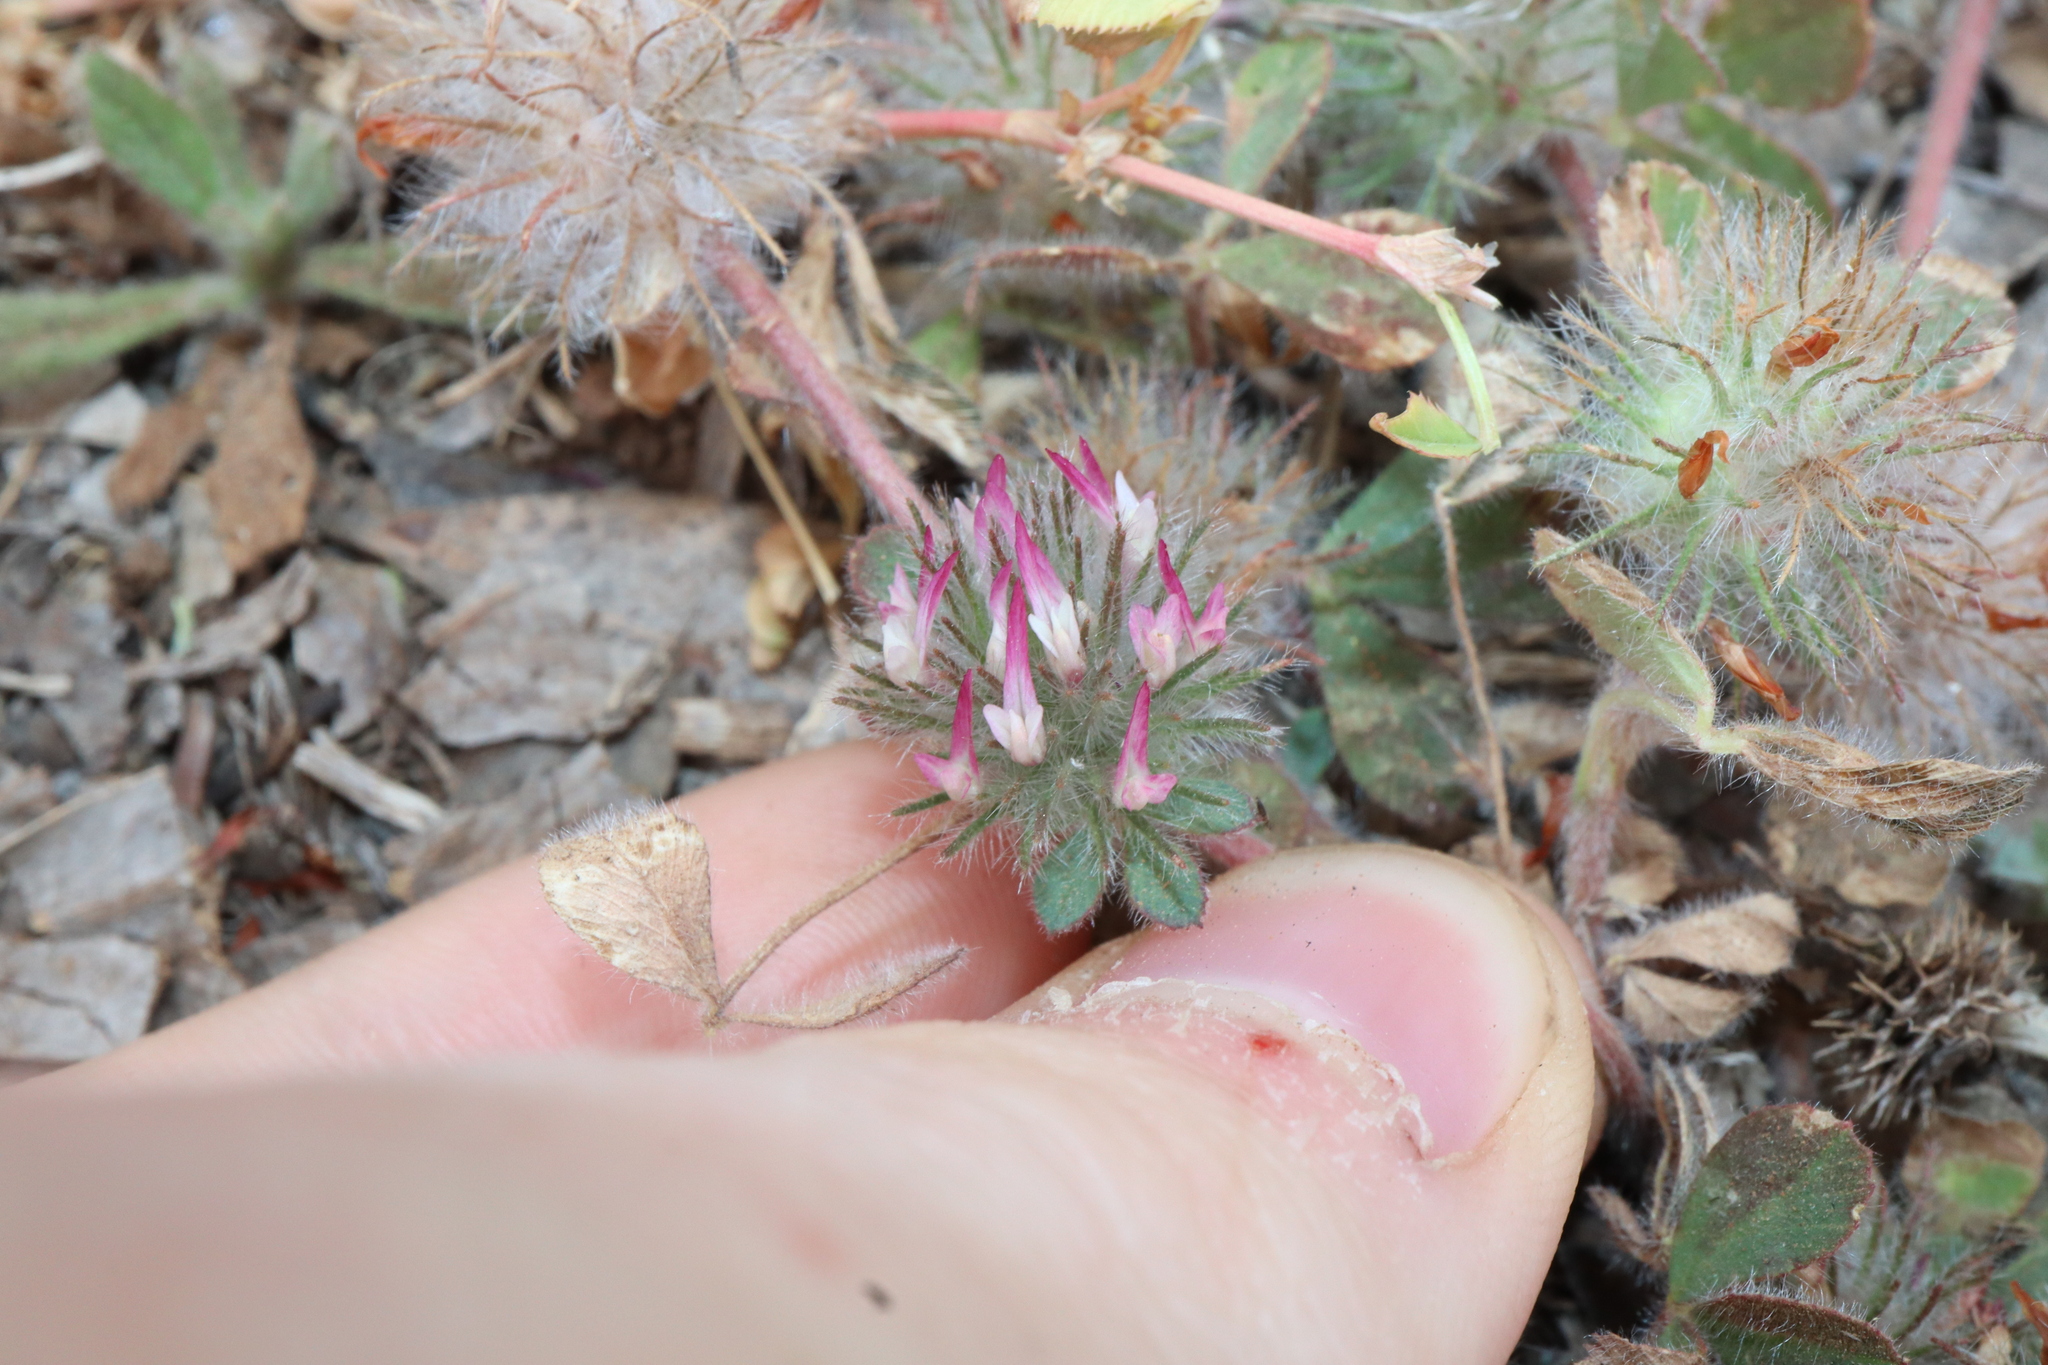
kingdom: Plantae
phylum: Tracheophyta
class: Magnoliopsida
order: Fabales
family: Fabaceae
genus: Trifolium
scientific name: Trifolium hirtum
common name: Rose clover
